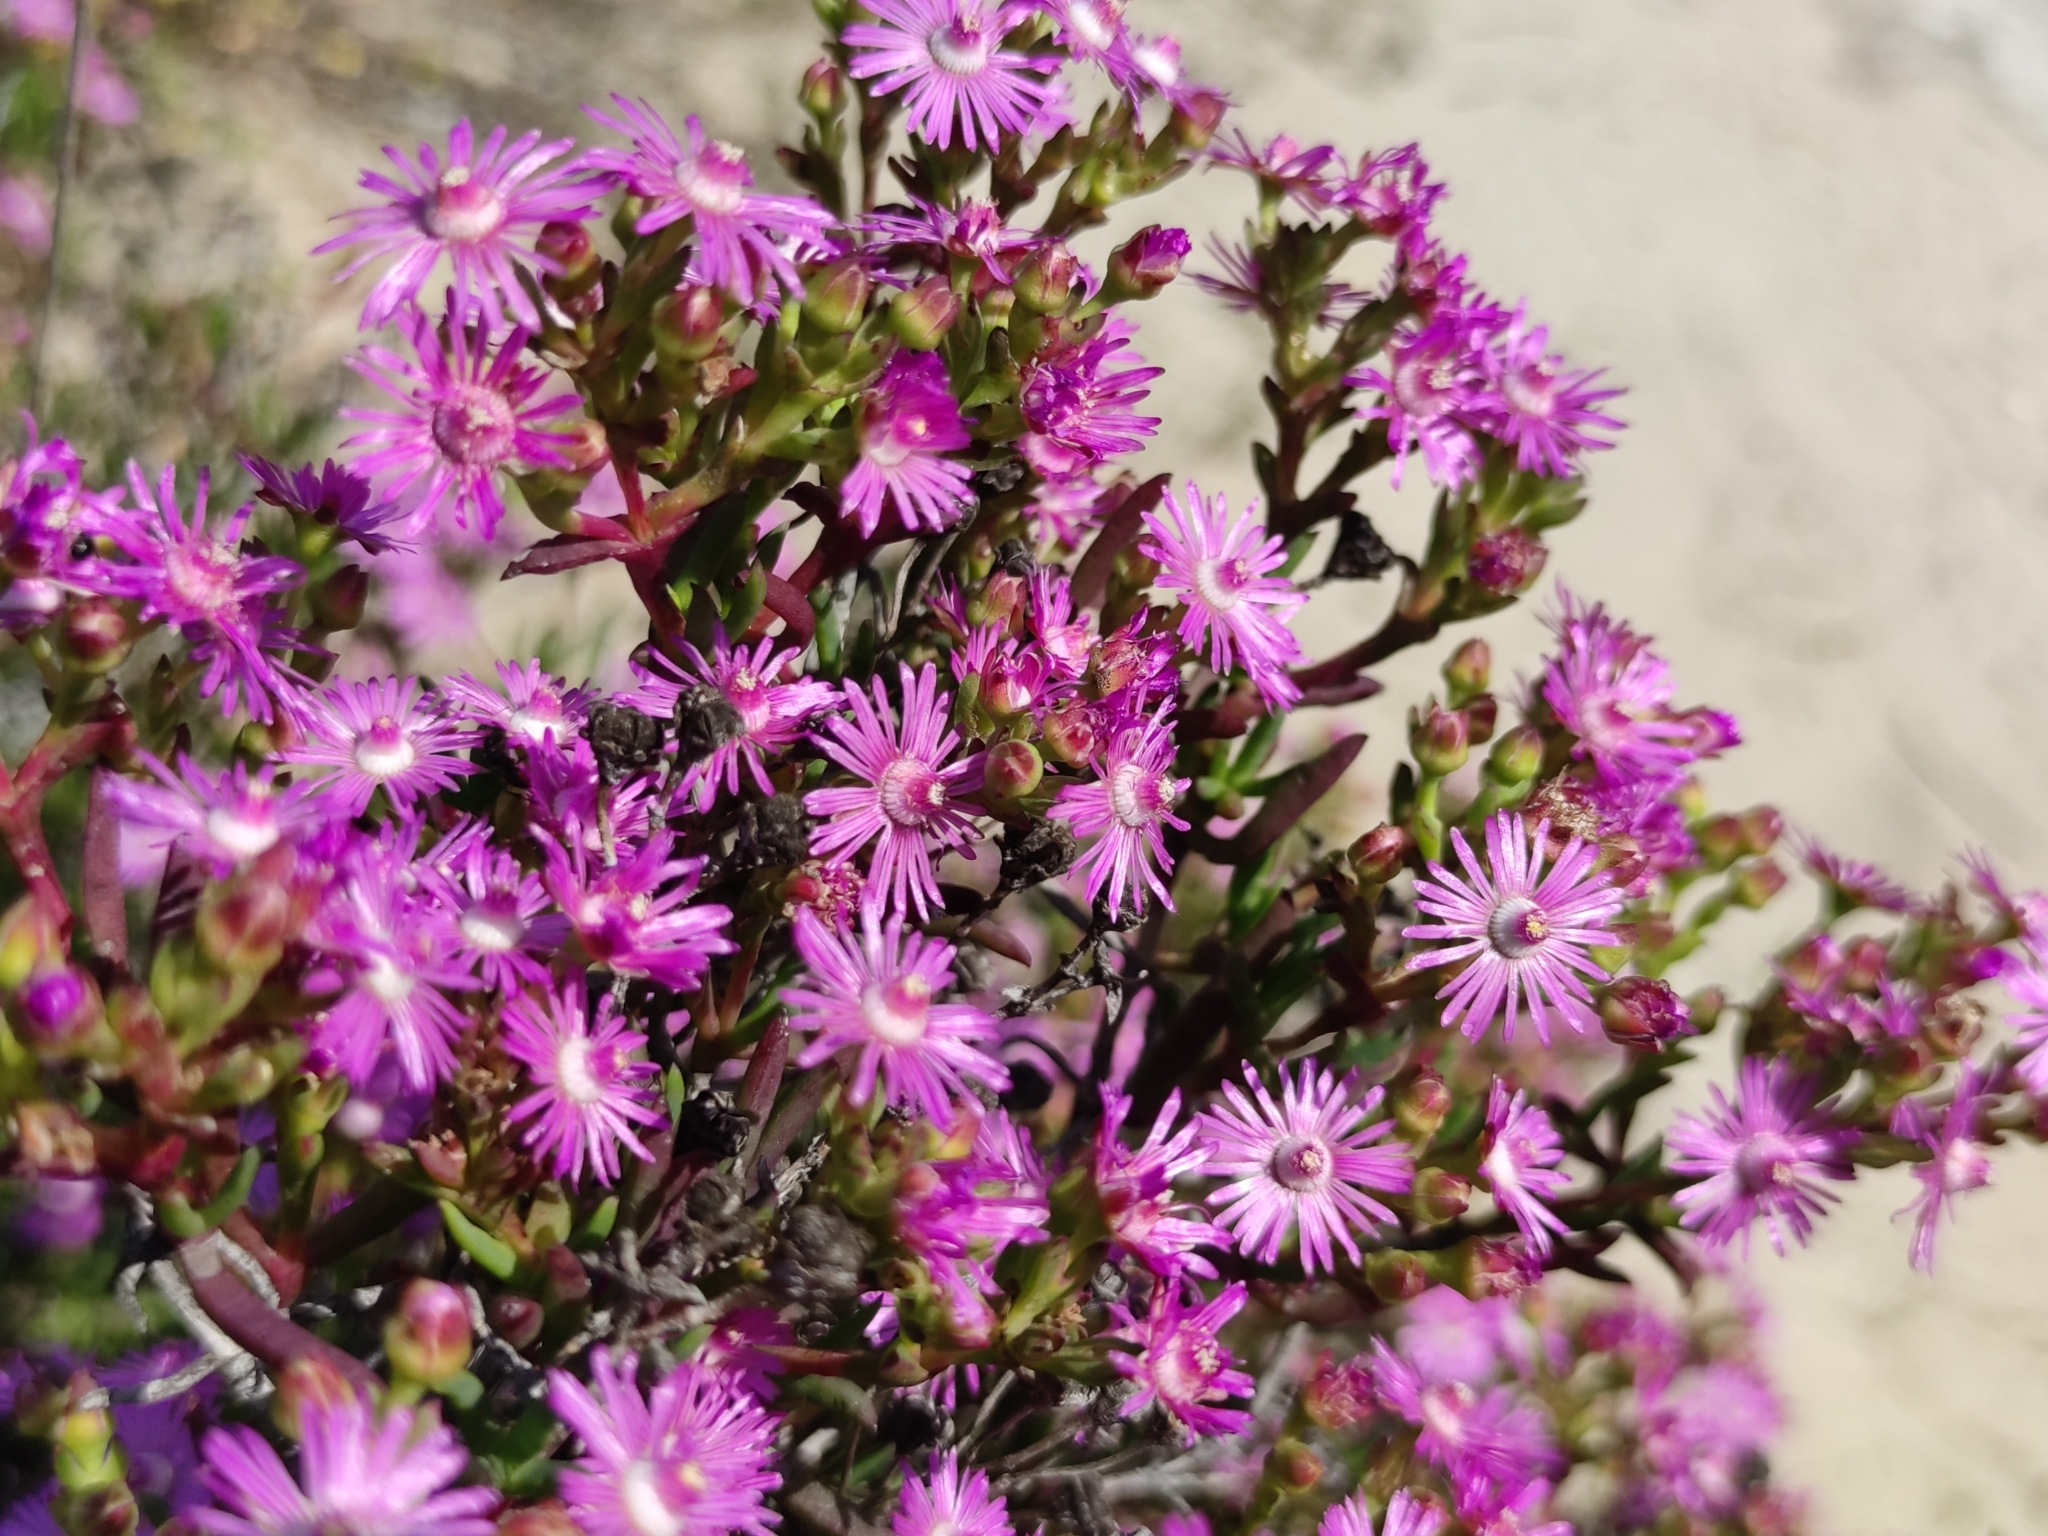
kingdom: Plantae
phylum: Tracheophyta
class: Magnoliopsida
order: Caryophyllales
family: Aizoaceae
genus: Ruschia
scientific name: Ruschia macowanii
